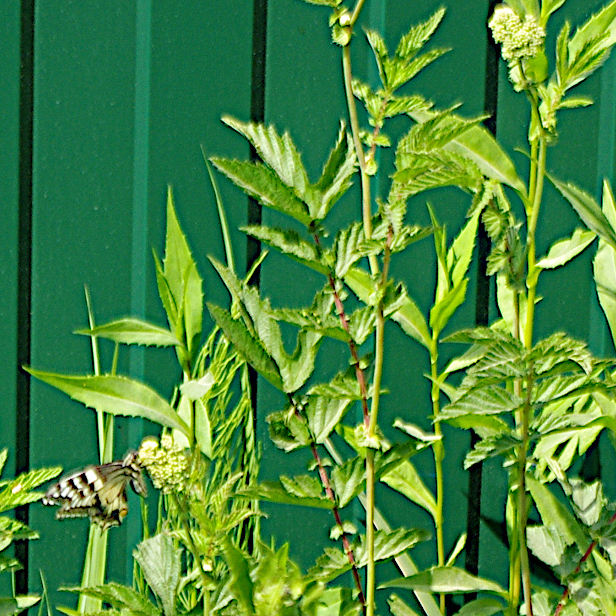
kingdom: Plantae
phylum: Tracheophyta
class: Magnoliopsida
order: Rosales
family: Rosaceae
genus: Filipendula
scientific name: Filipendula ulmaria
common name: Meadowsweet
